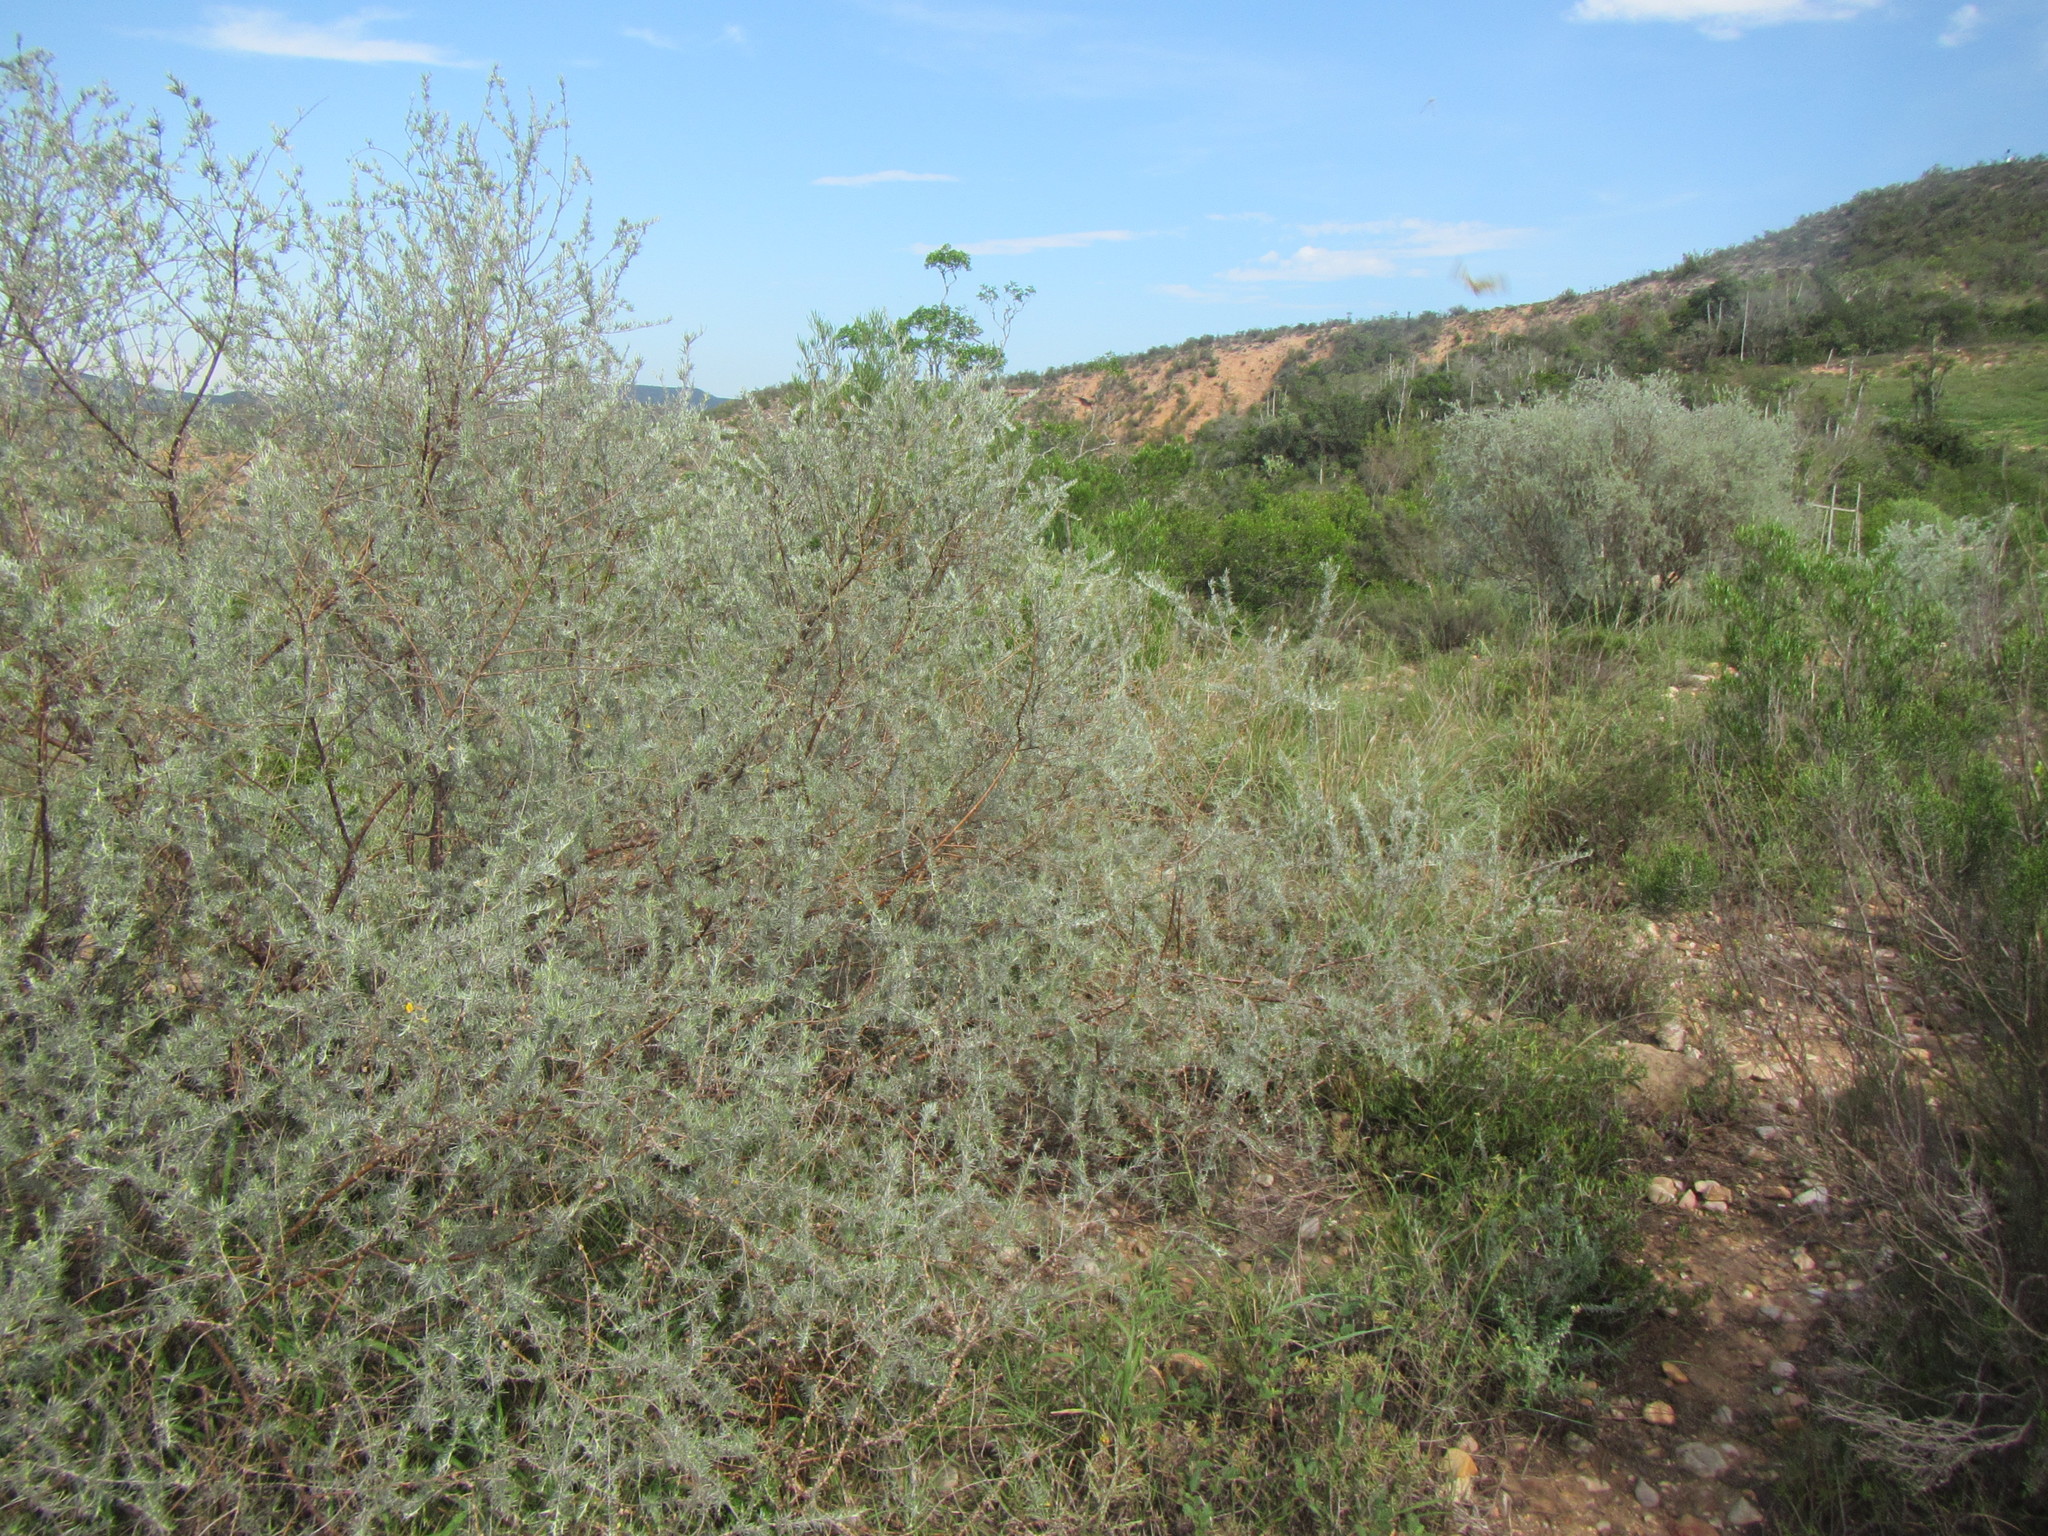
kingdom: Plantae
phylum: Tracheophyta
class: Magnoliopsida
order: Fabales
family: Fabaceae
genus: Aspalathus
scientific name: Aspalathus nivea
